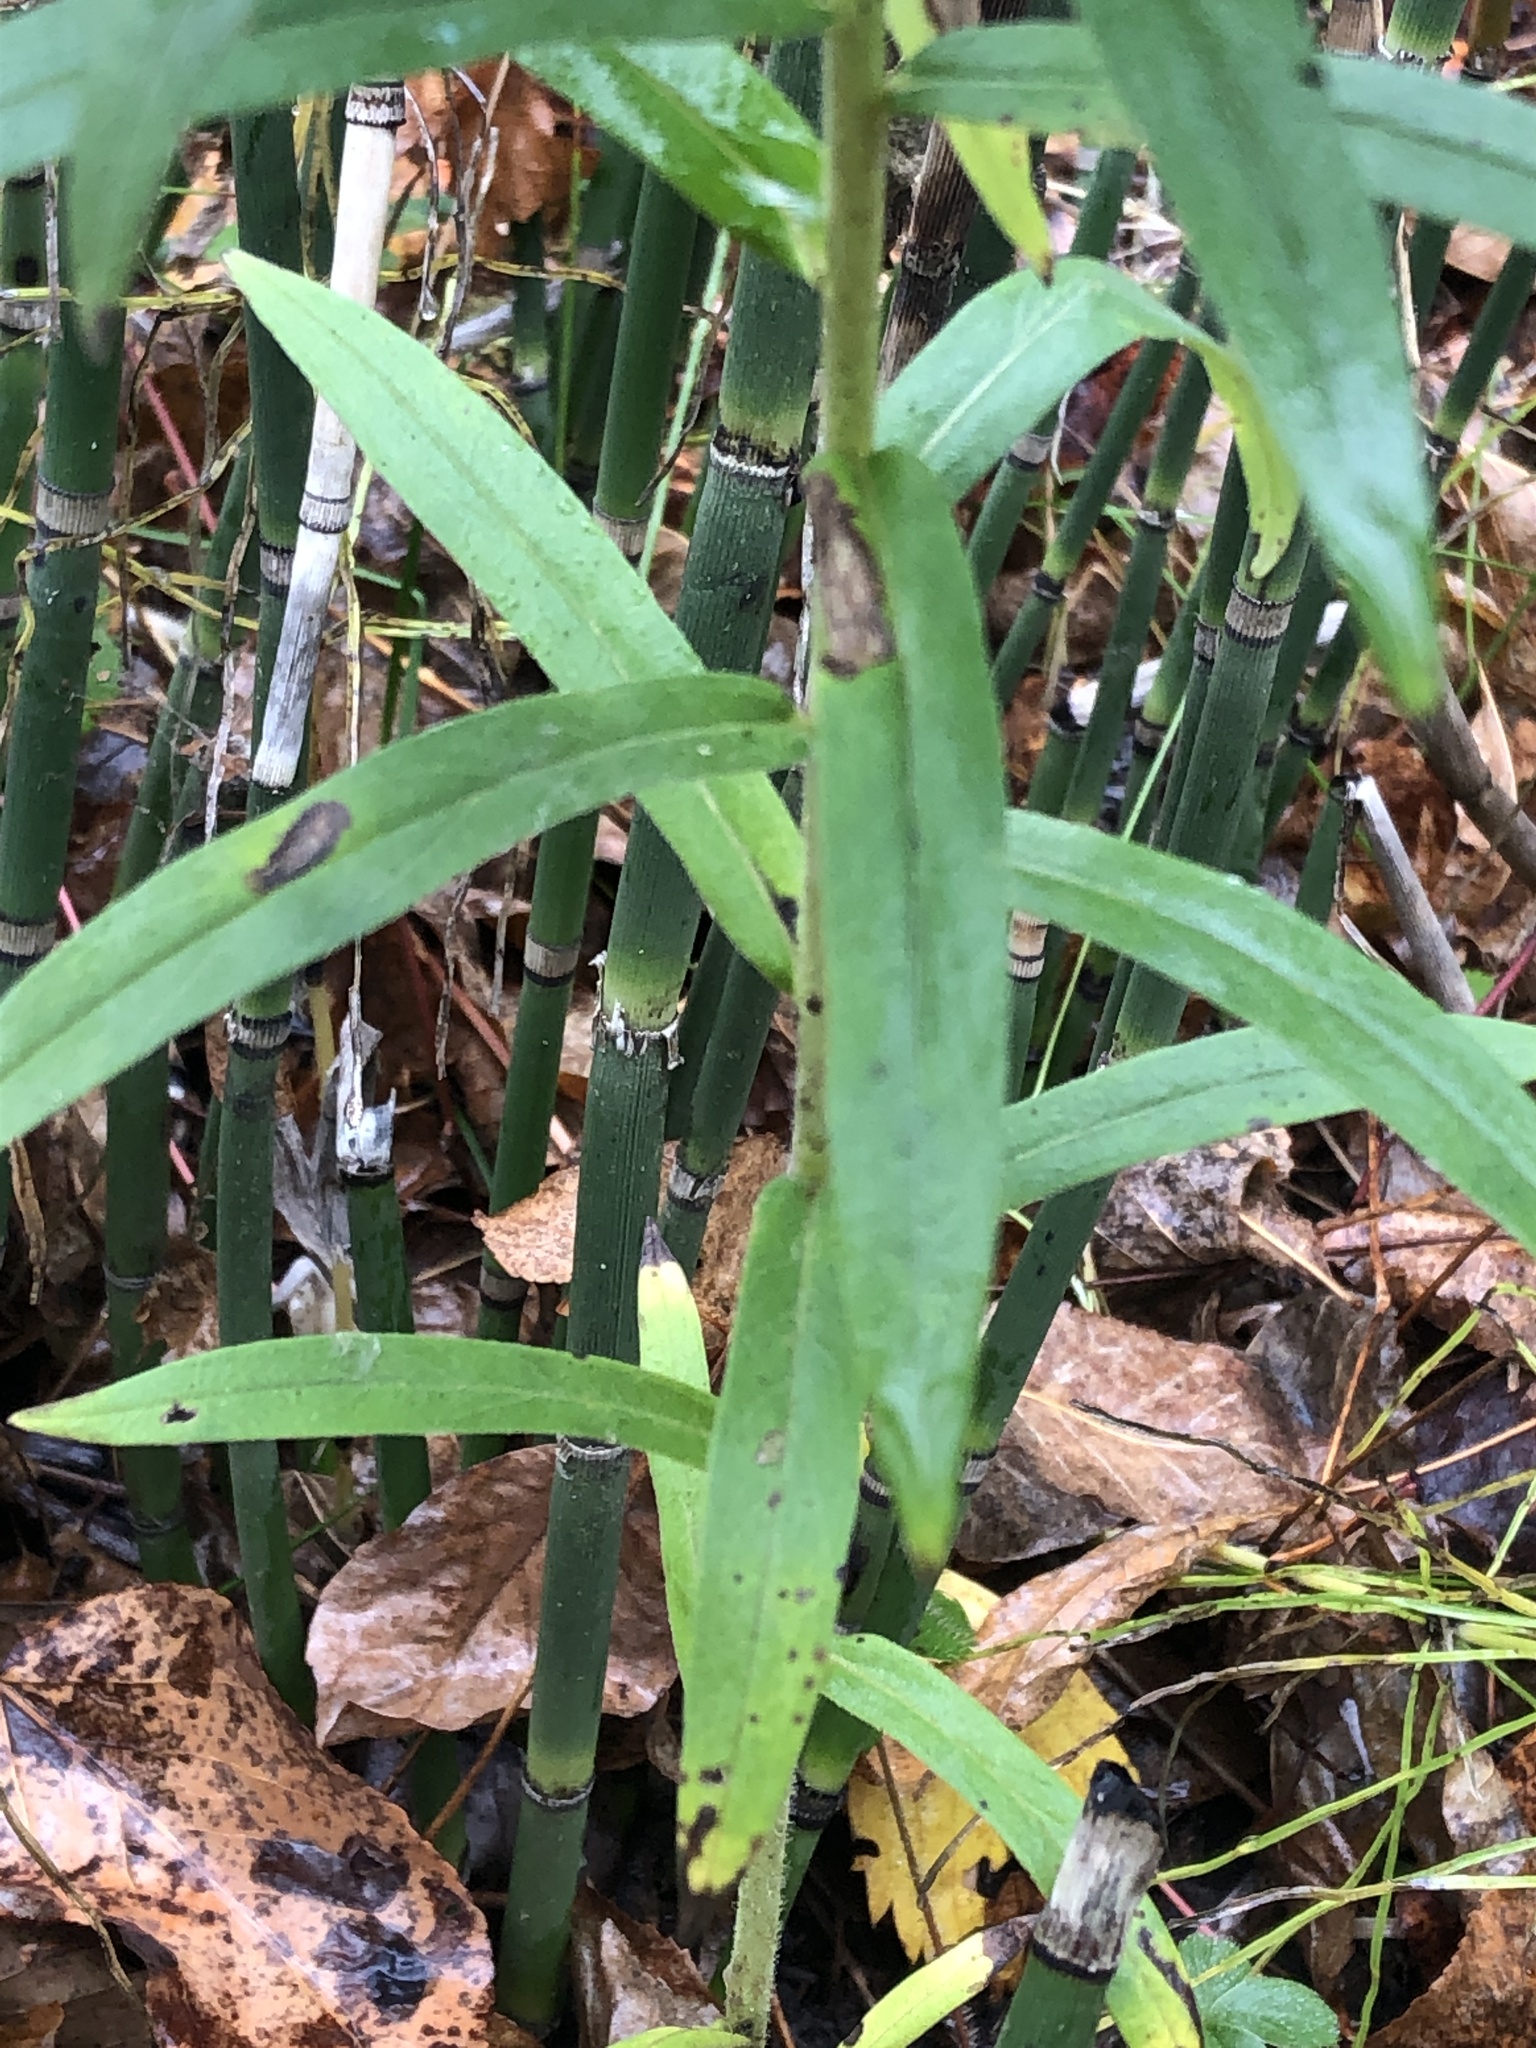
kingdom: Plantae
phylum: Tracheophyta
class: Magnoliopsida
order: Boraginales
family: Boraginaceae
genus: Lithospermum
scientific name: Lithospermum officinale
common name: Common gromwell
